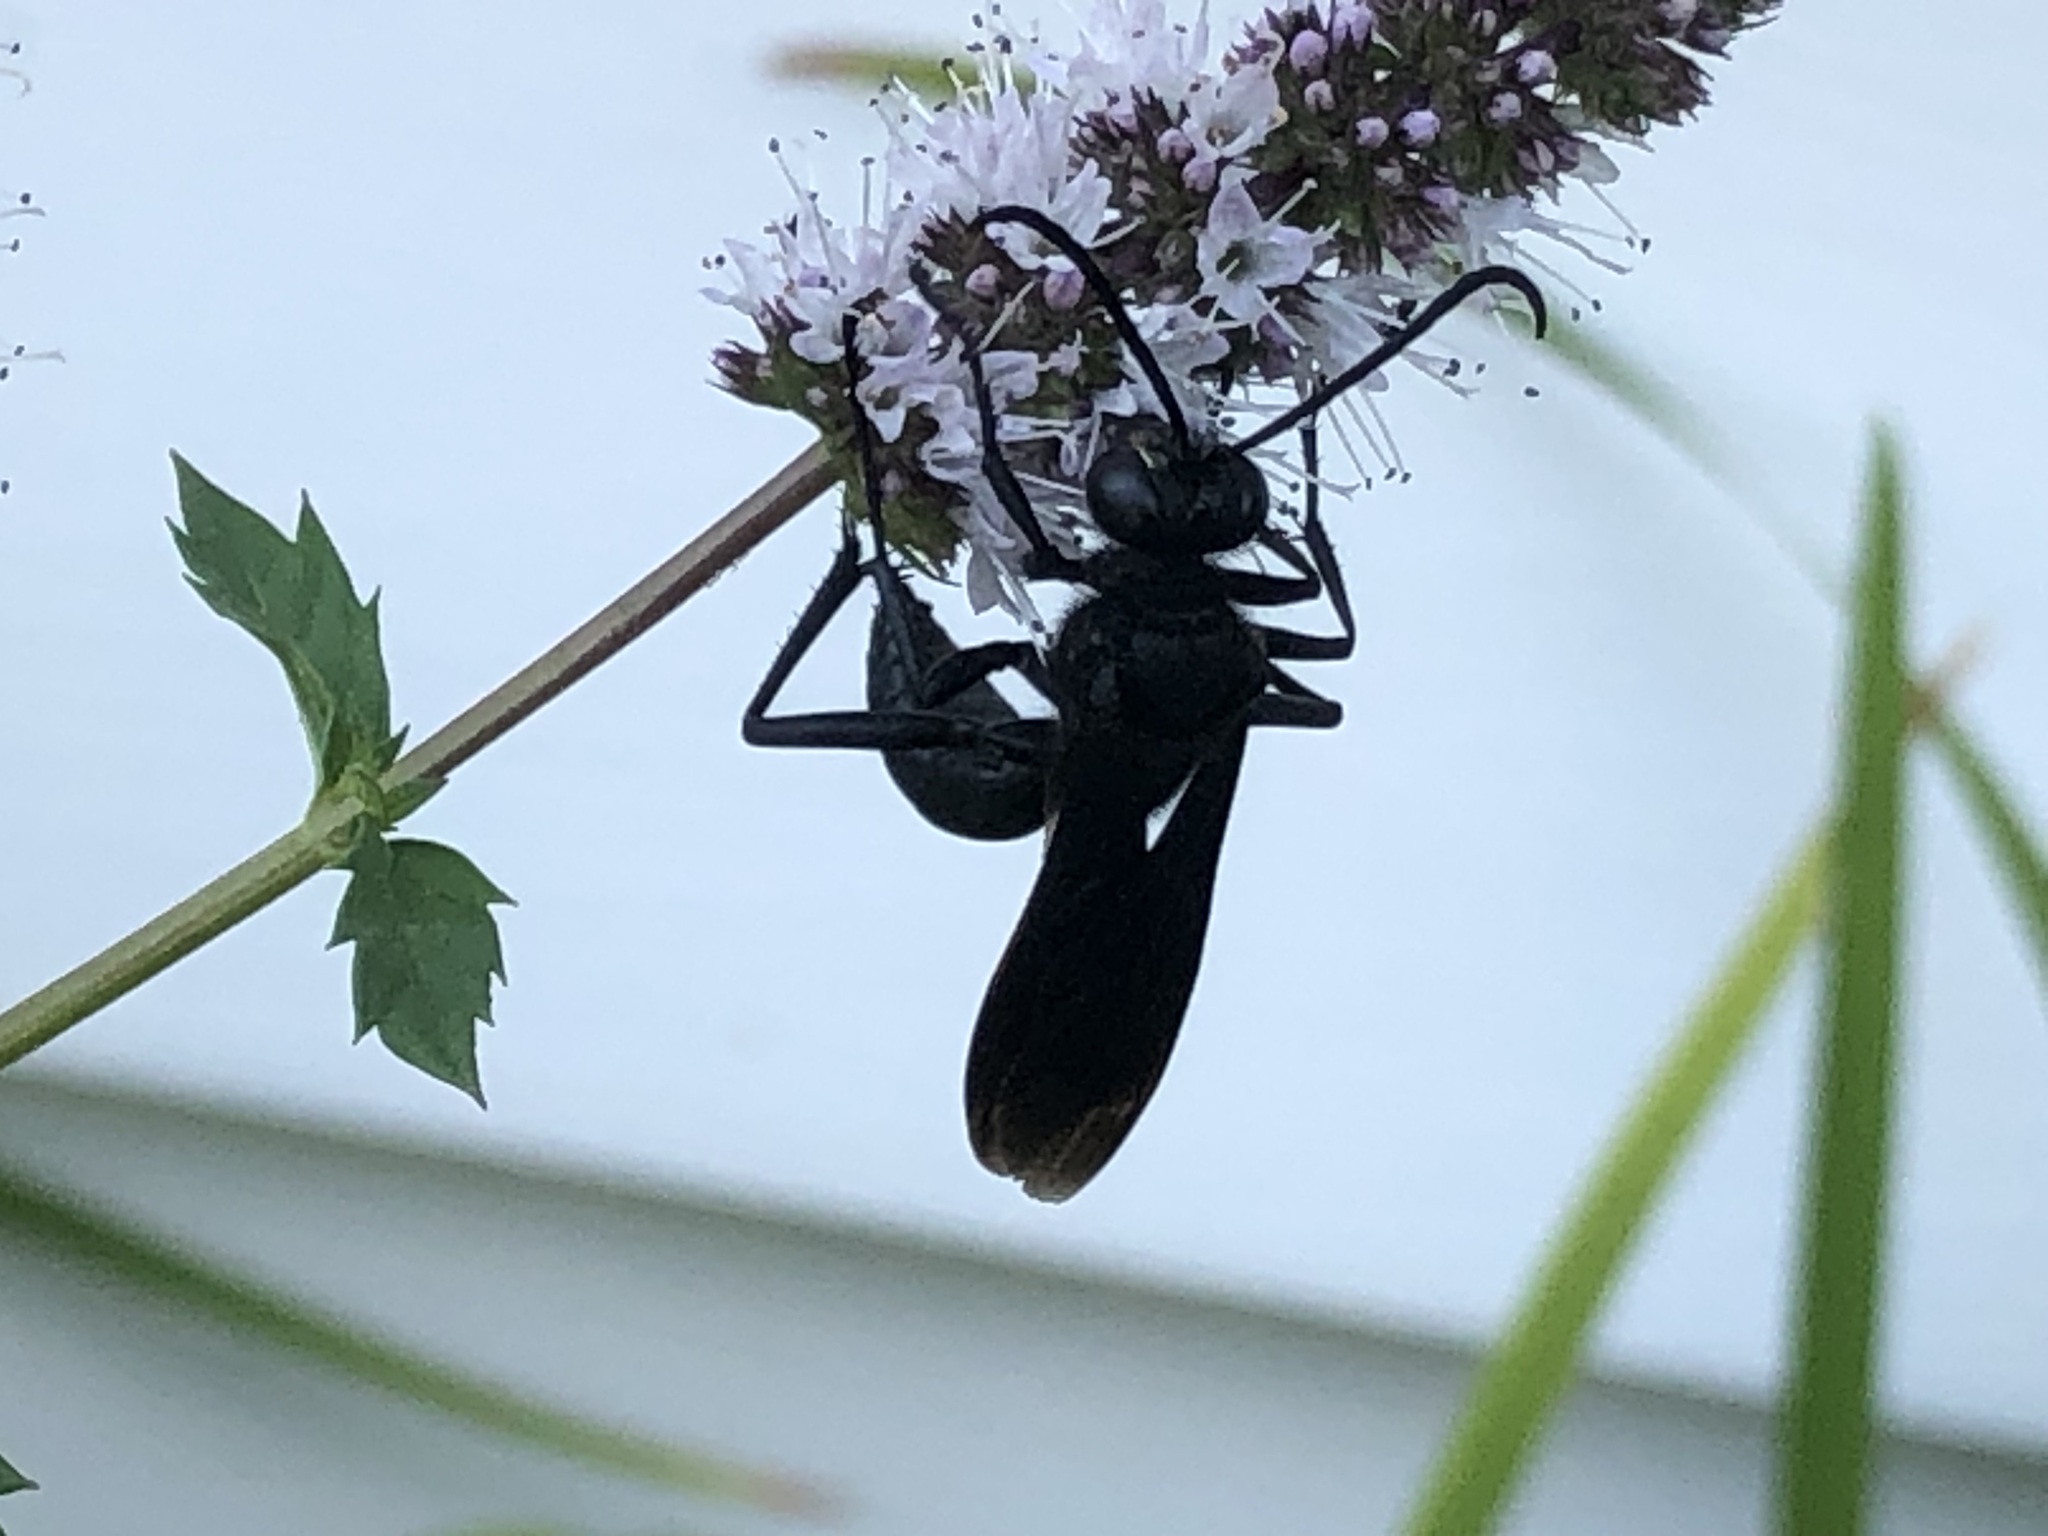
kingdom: Animalia
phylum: Arthropoda
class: Insecta
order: Hymenoptera
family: Sphecidae
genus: Sphex
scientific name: Sphex pensylvanicus
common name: Great black digger wasp
